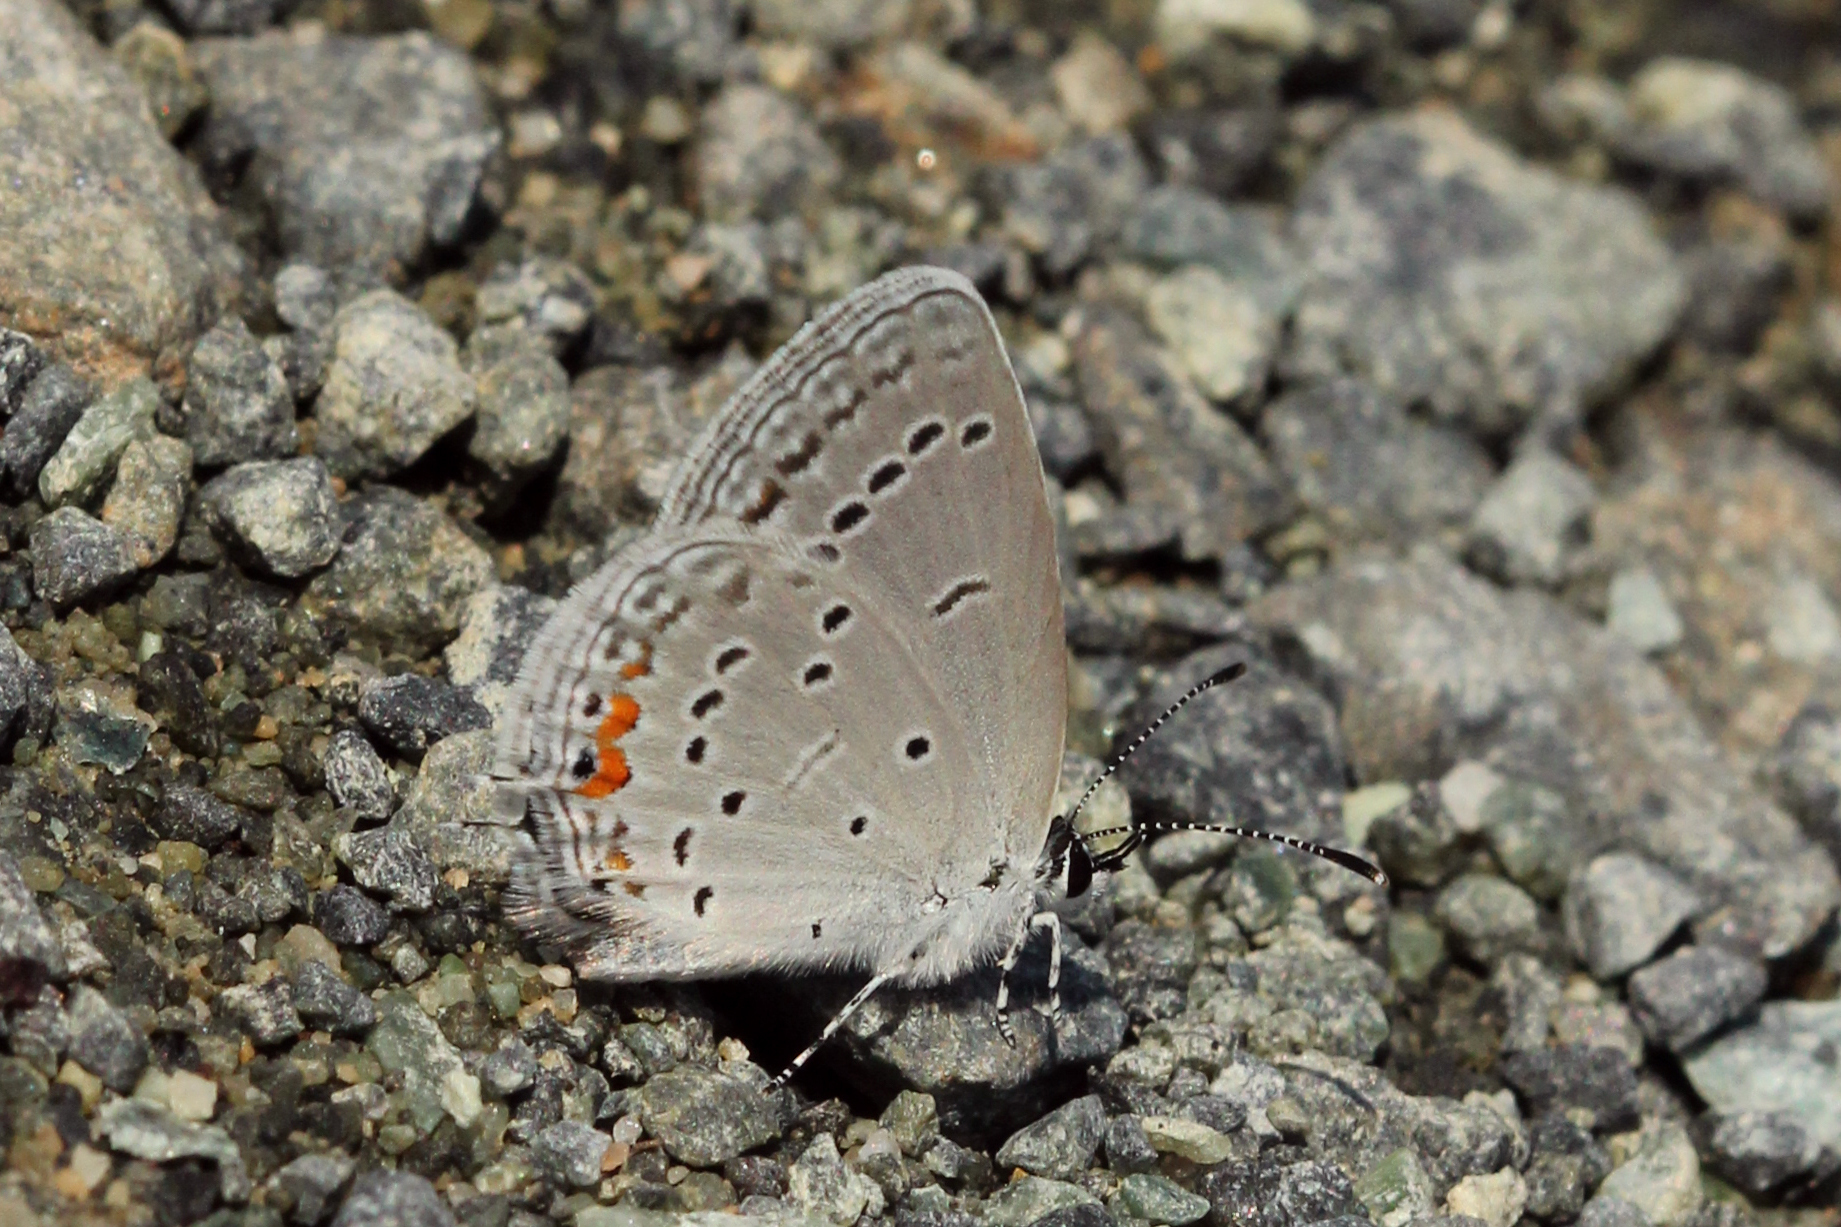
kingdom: Animalia
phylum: Arthropoda
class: Insecta
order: Lepidoptera
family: Lycaenidae
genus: Elkalyce
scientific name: Elkalyce comyntas
